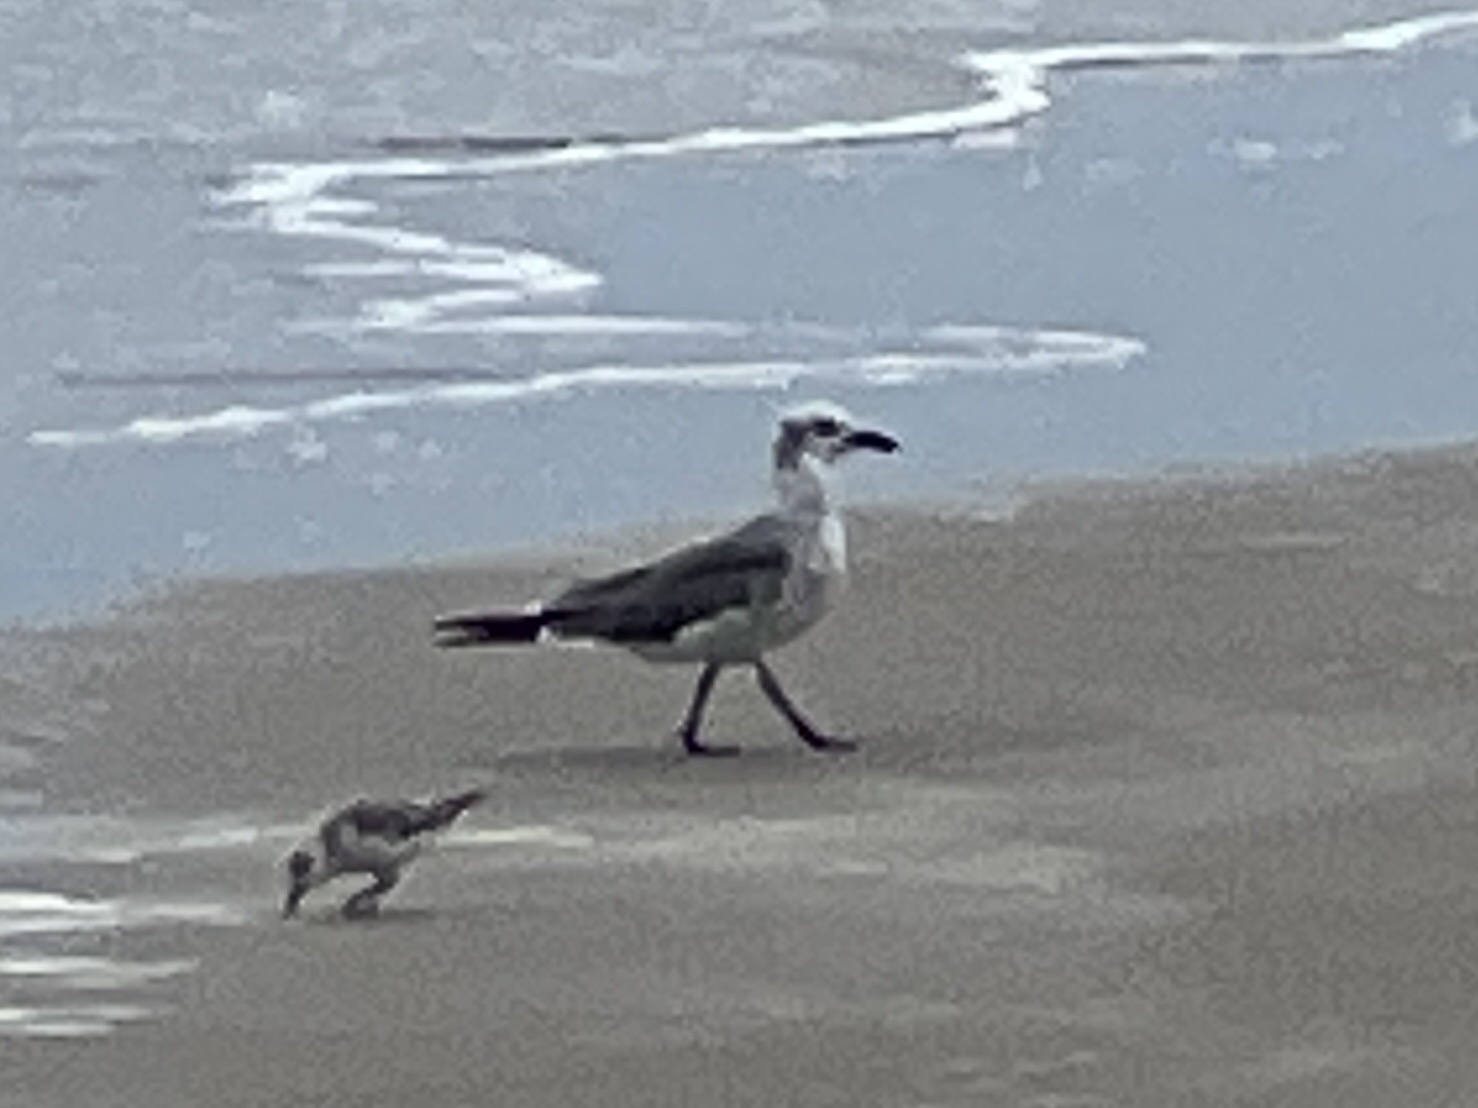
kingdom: Animalia
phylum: Chordata
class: Aves
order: Charadriiformes
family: Laridae
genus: Leucophaeus
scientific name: Leucophaeus atricilla
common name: Laughing gull
